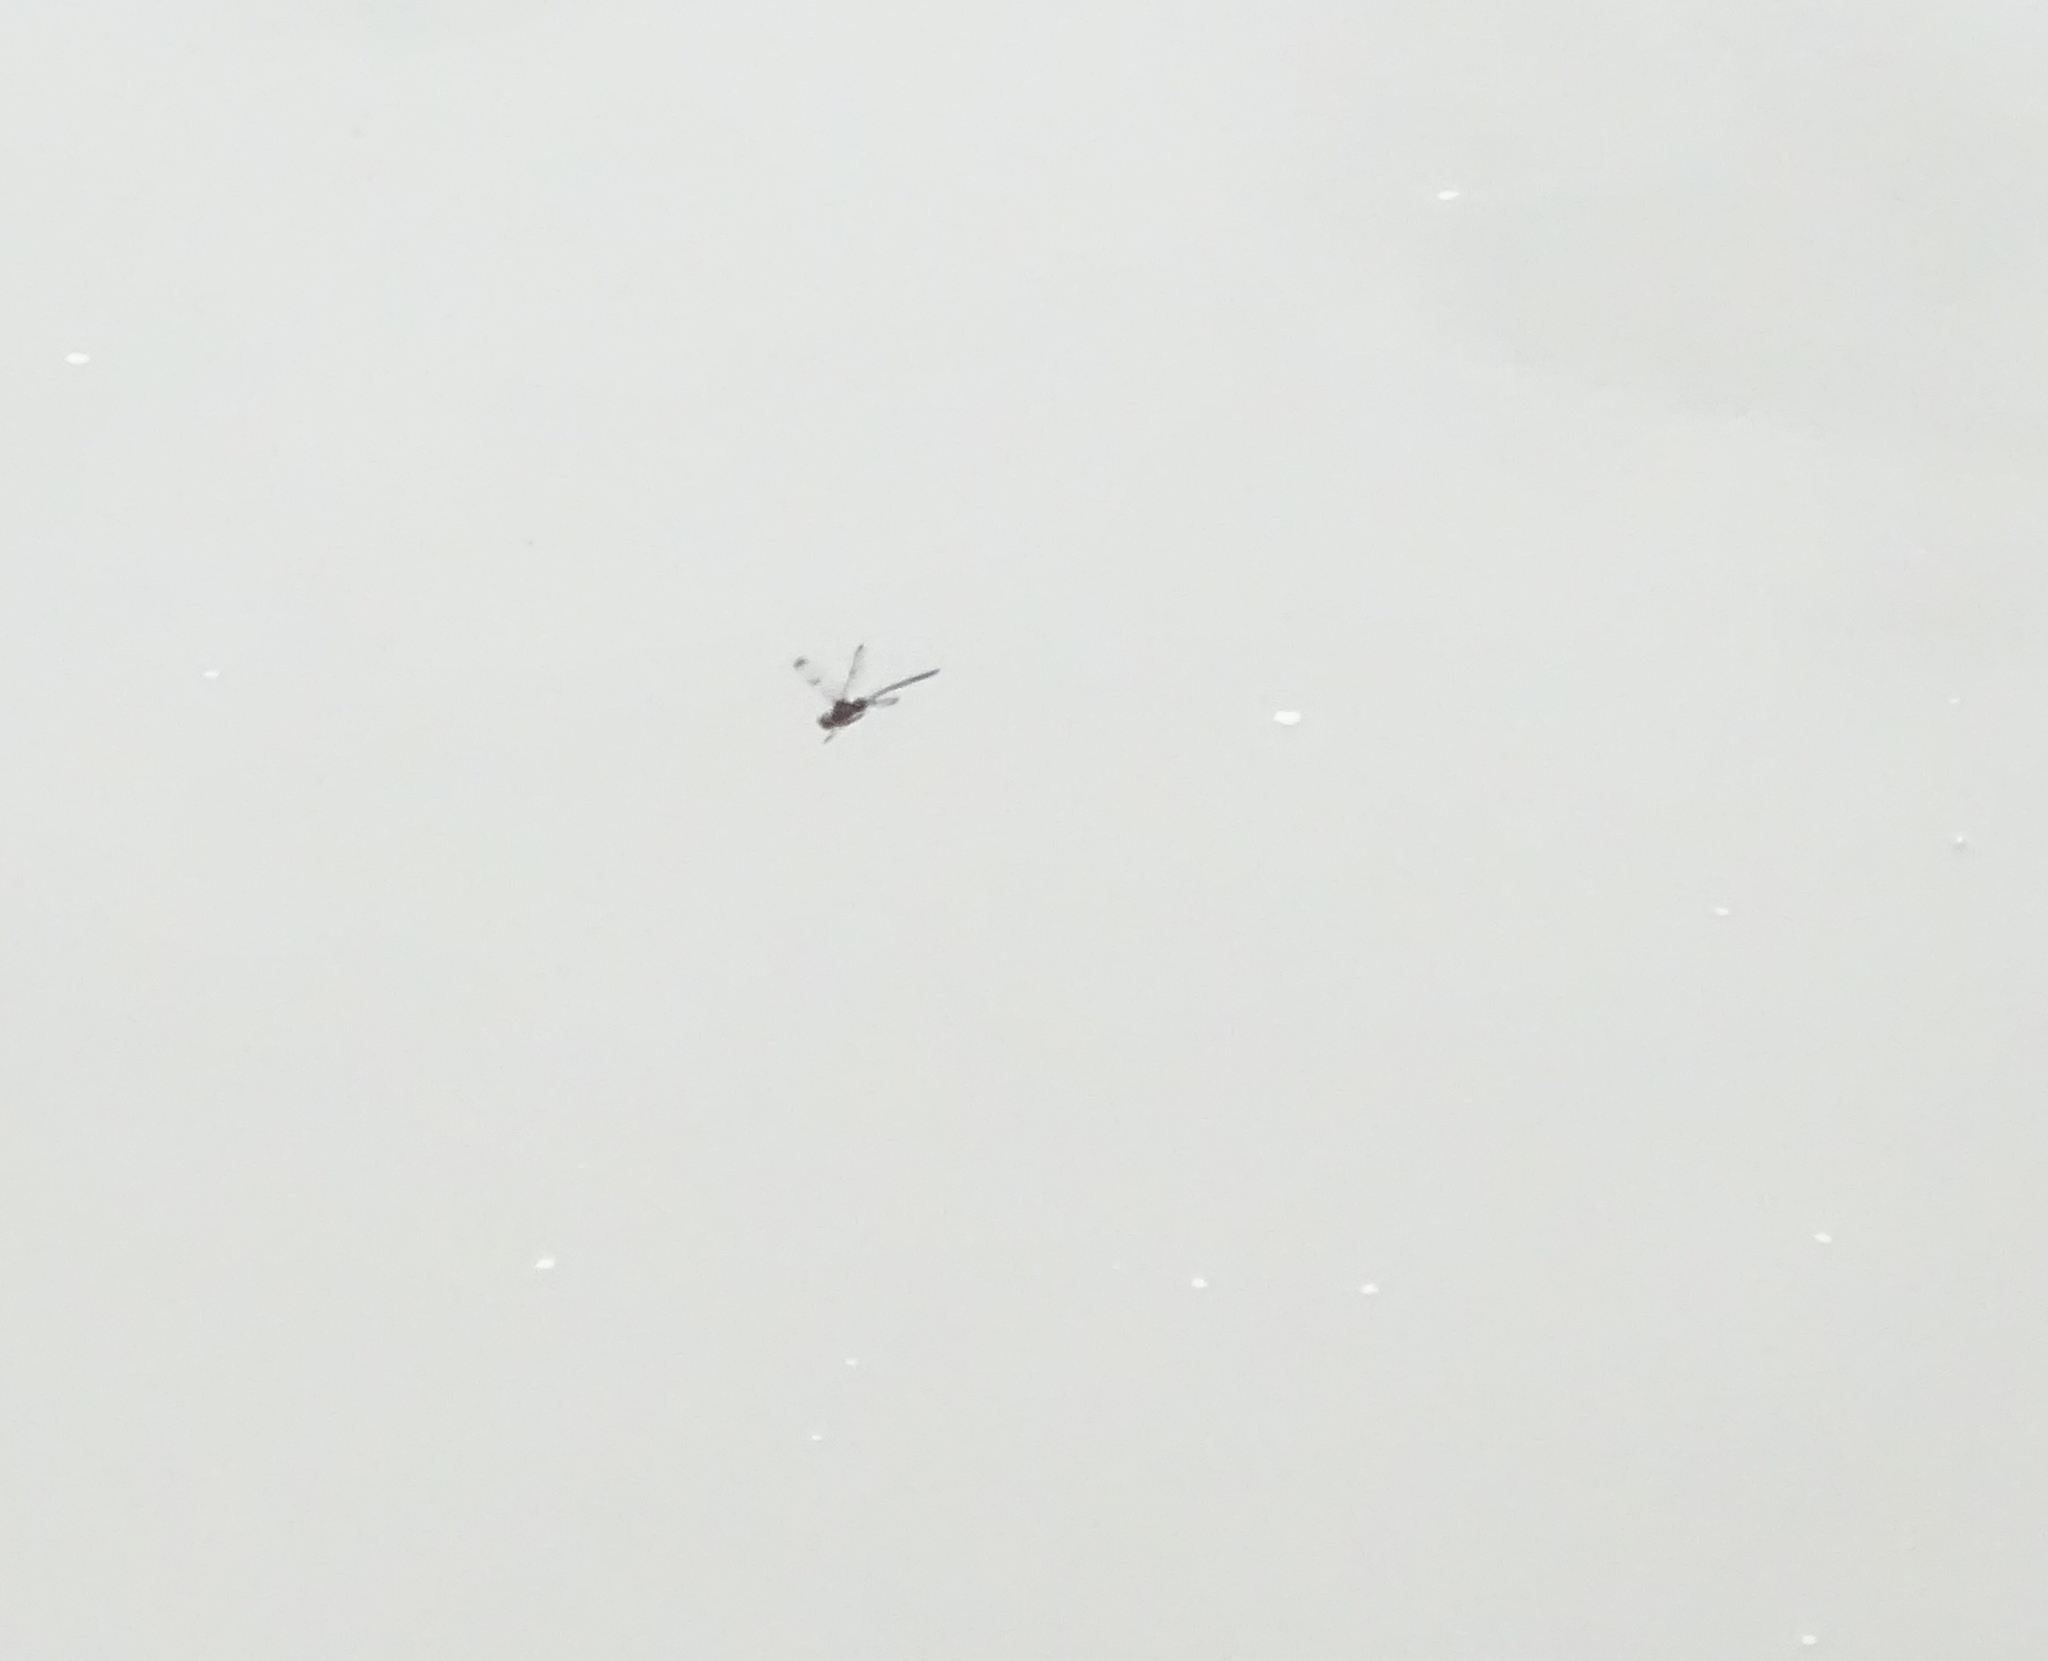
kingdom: Animalia
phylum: Arthropoda
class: Insecta
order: Odonata
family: Corduliidae
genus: Epitheca
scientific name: Epitheca princeps
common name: Prince baskettail
